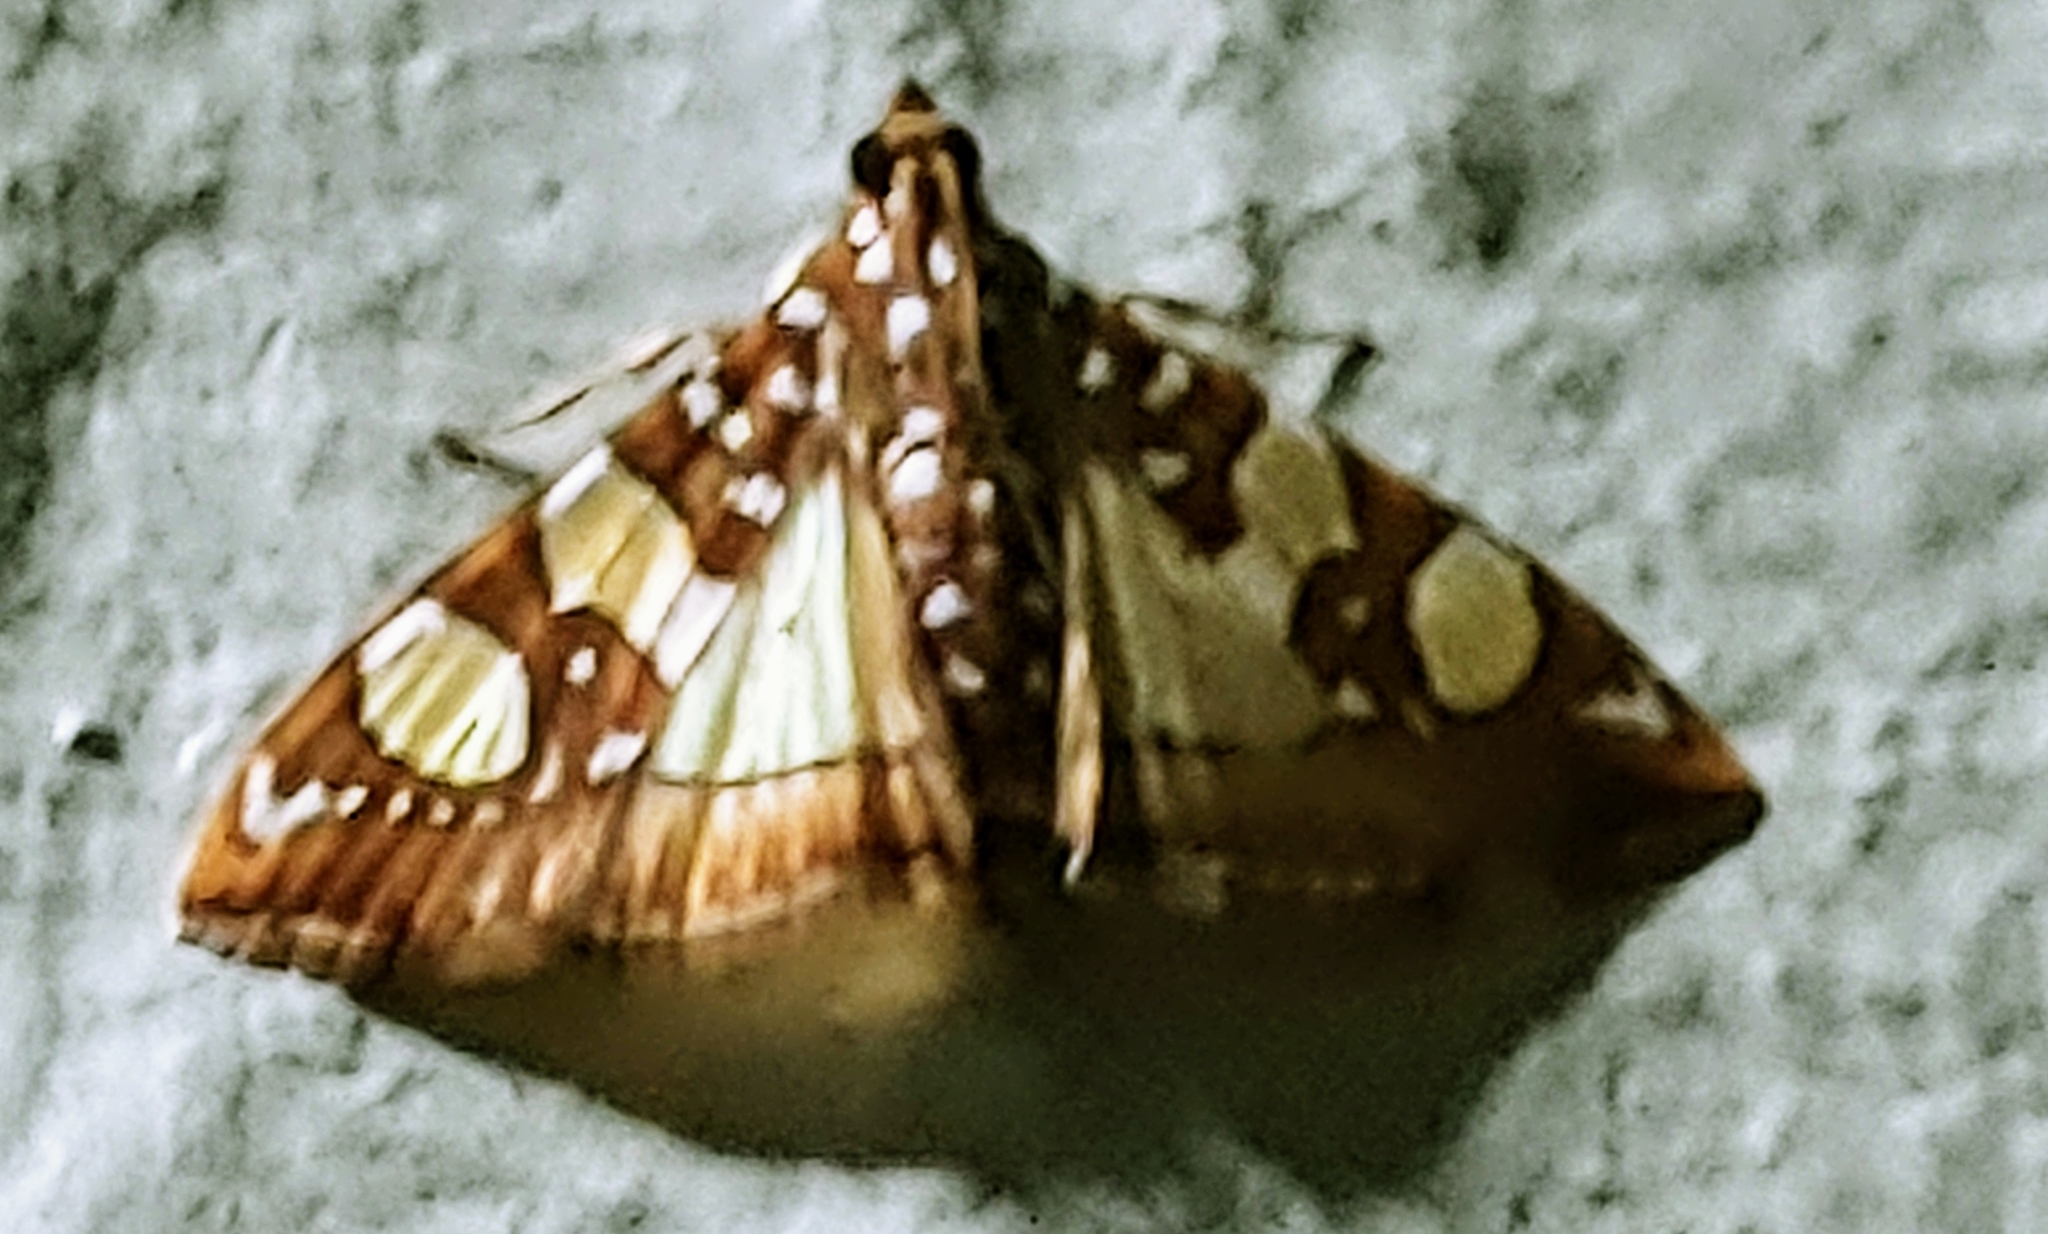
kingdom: Animalia
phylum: Arthropoda
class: Insecta
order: Lepidoptera
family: Crambidae
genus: Glyphodes
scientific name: Glyphodes sibillalis
